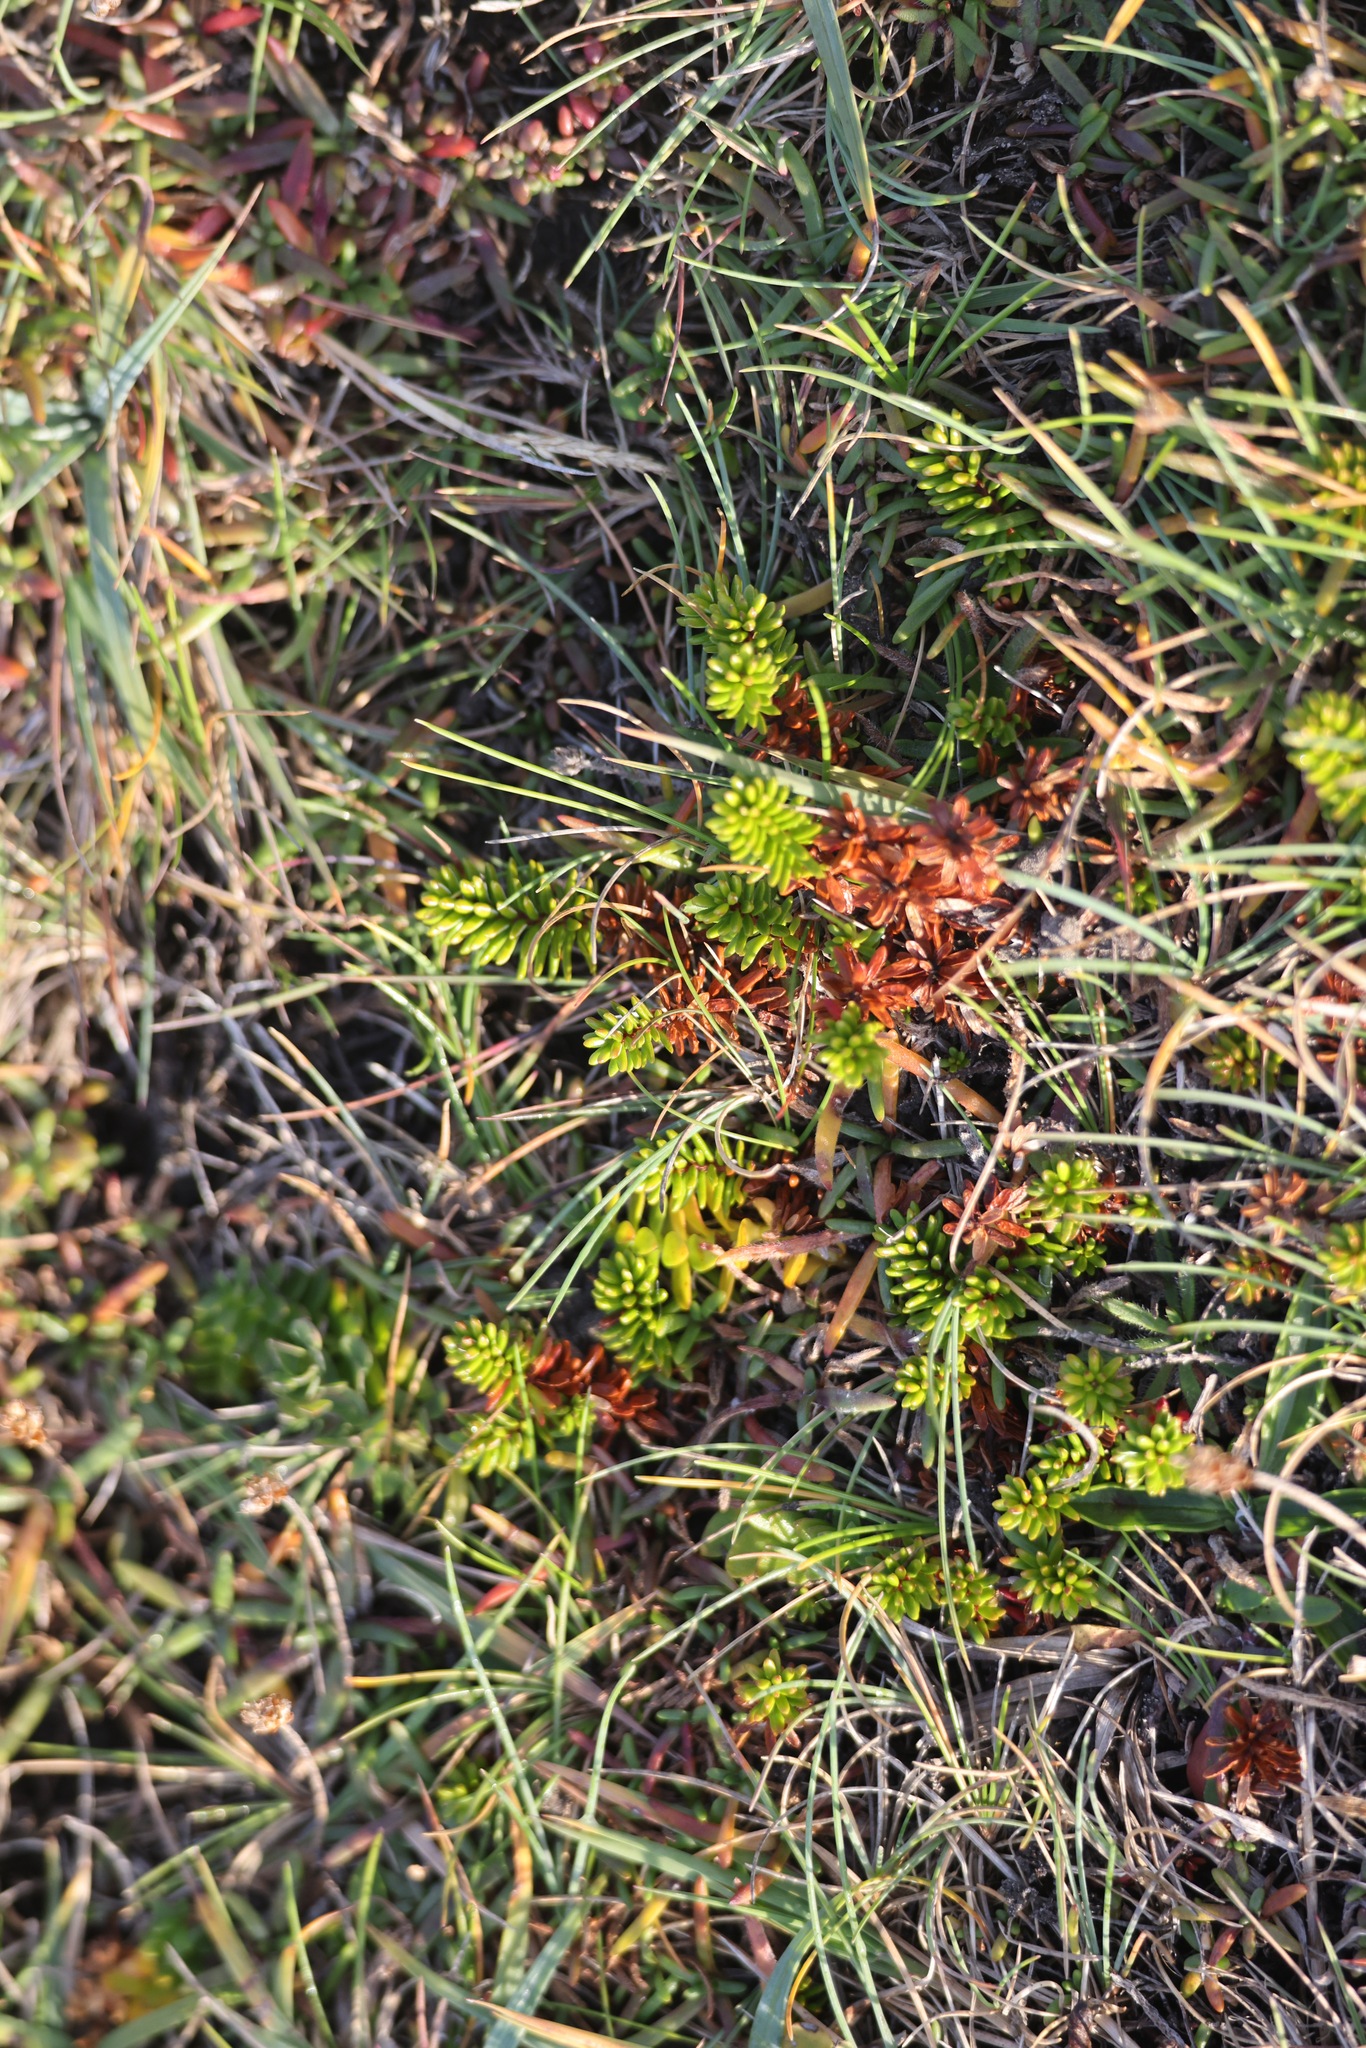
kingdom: Plantae
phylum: Tracheophyta
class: Magnoliopsida
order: Ericales
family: Ericaceae
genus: Empetrum
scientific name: Empetrum nigrum
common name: Black crowberry
